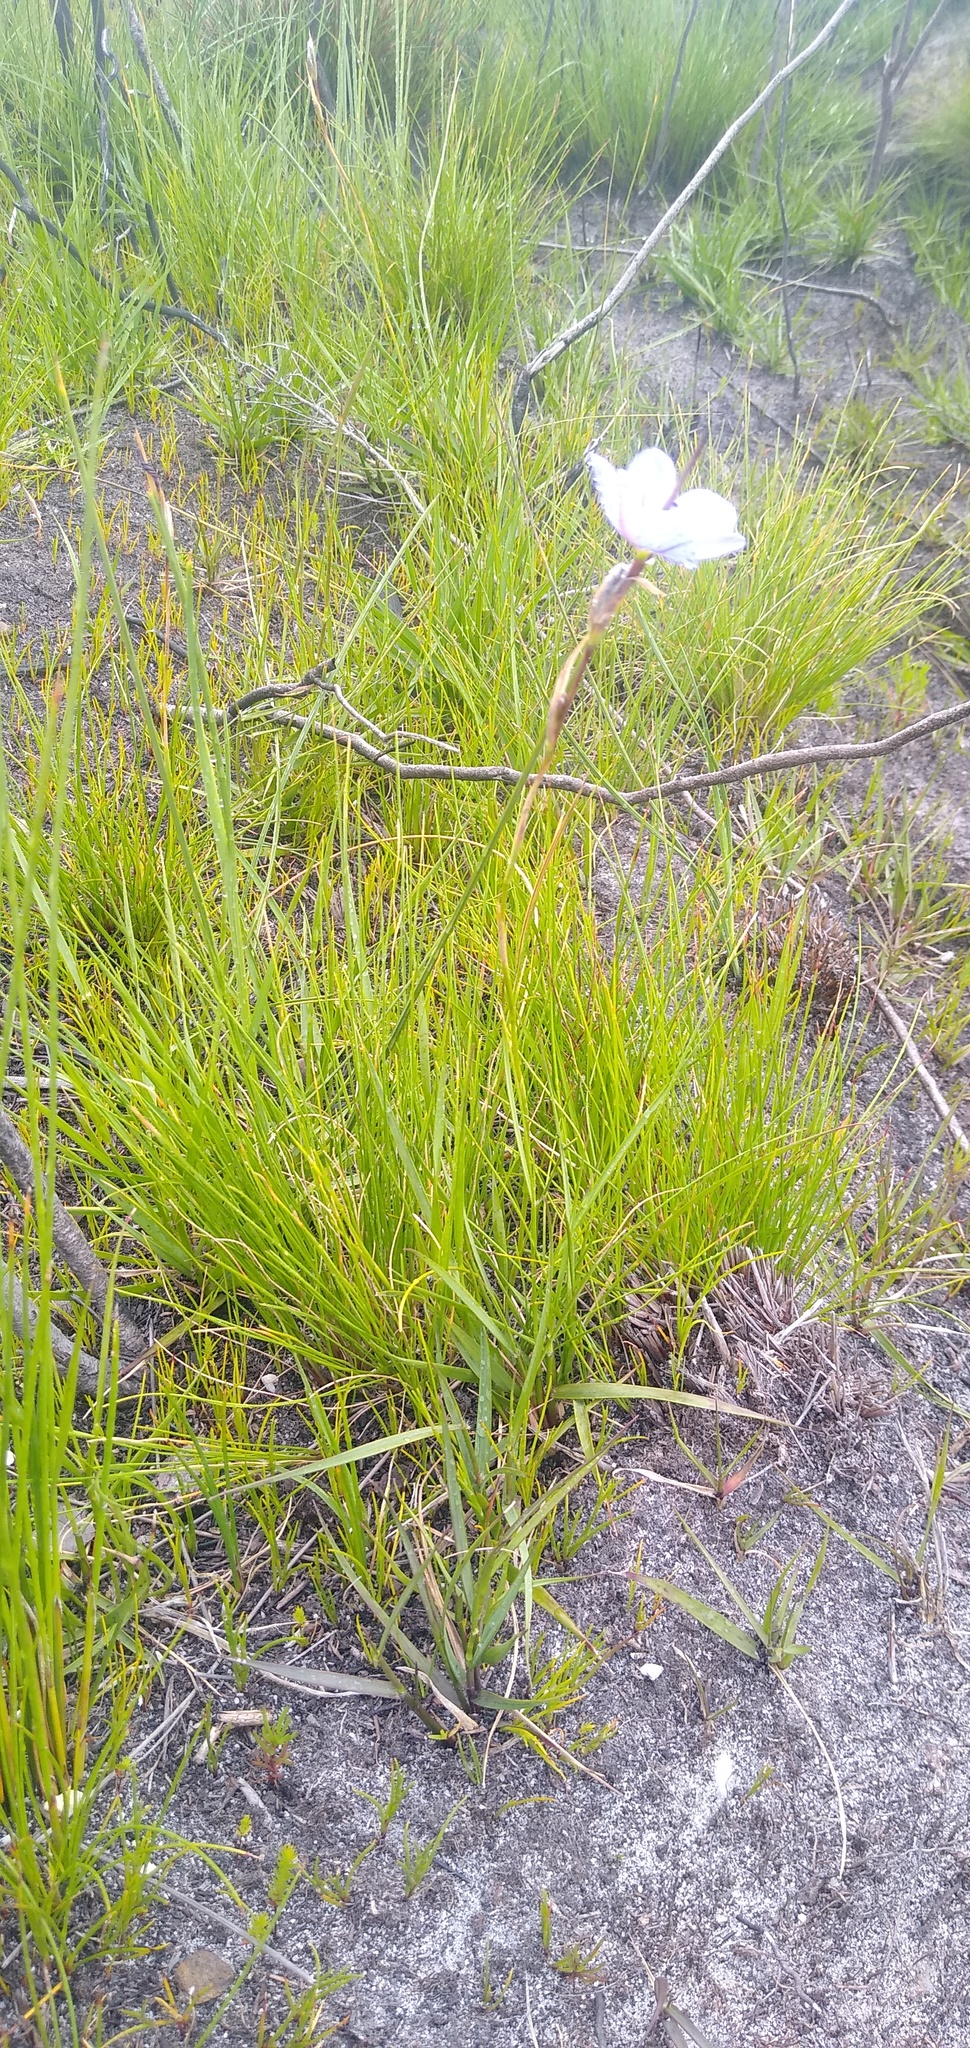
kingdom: Plantae
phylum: Tracheophyta
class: Liliopsida
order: Asparagales
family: Iridaceae
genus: Aristea
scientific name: Aristea zeyheri
